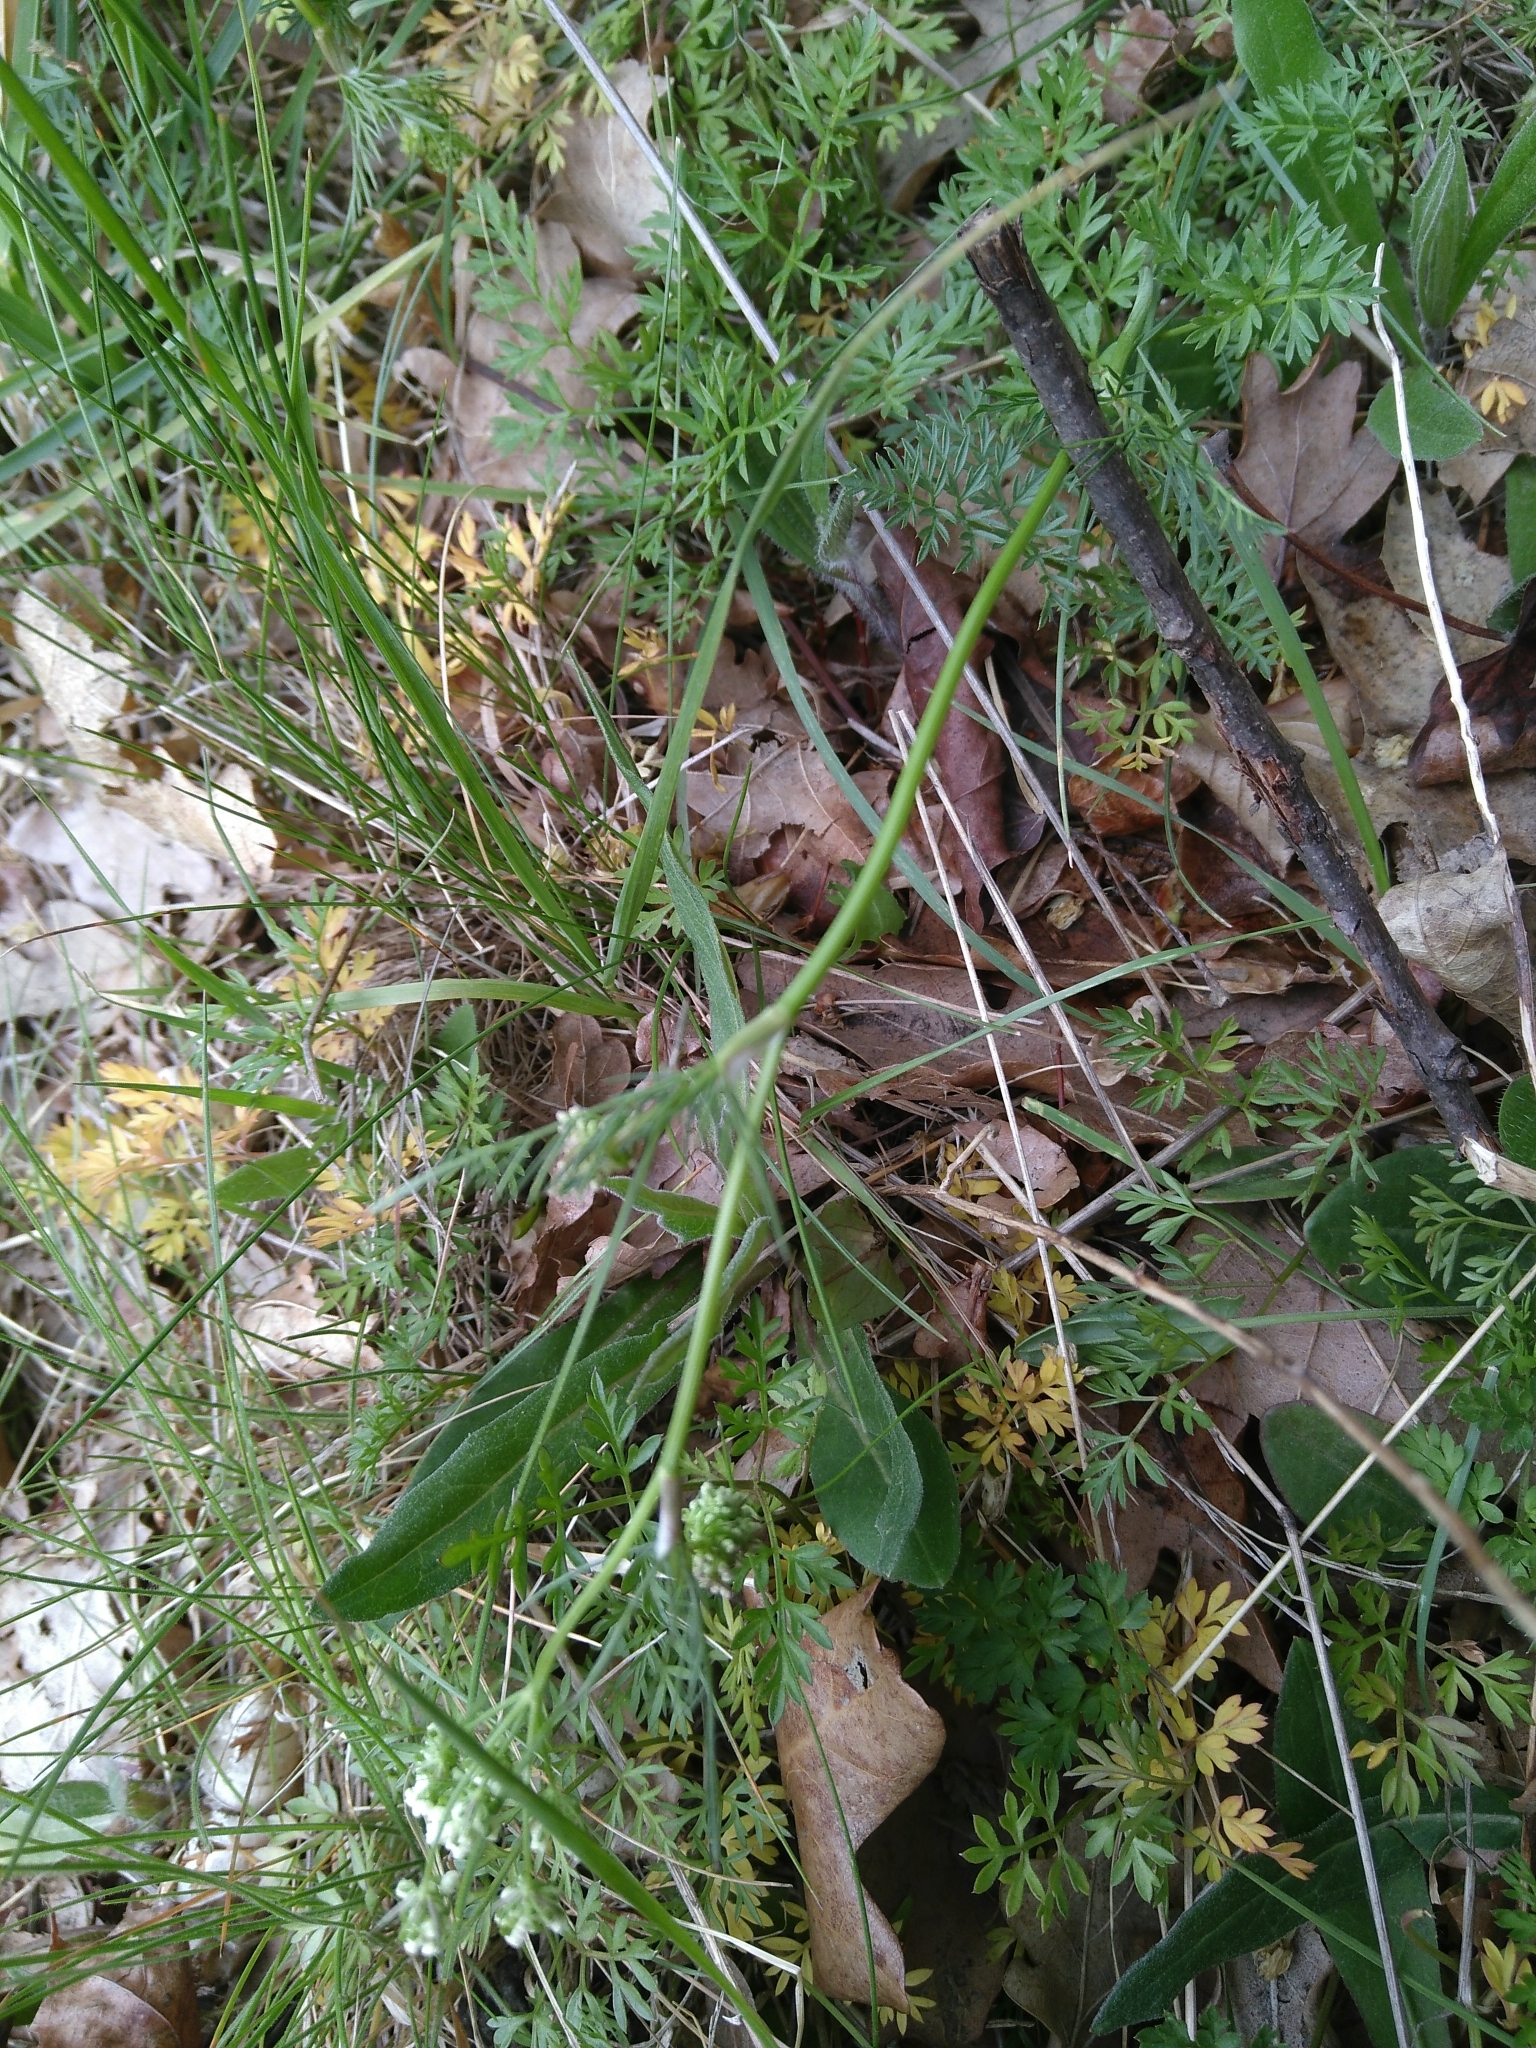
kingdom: Plantae
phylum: Tracheophyta
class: Magnoliopsida
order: Apiales
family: Apiaceae
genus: Conopodium
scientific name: Conopodium majus
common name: Pignut
